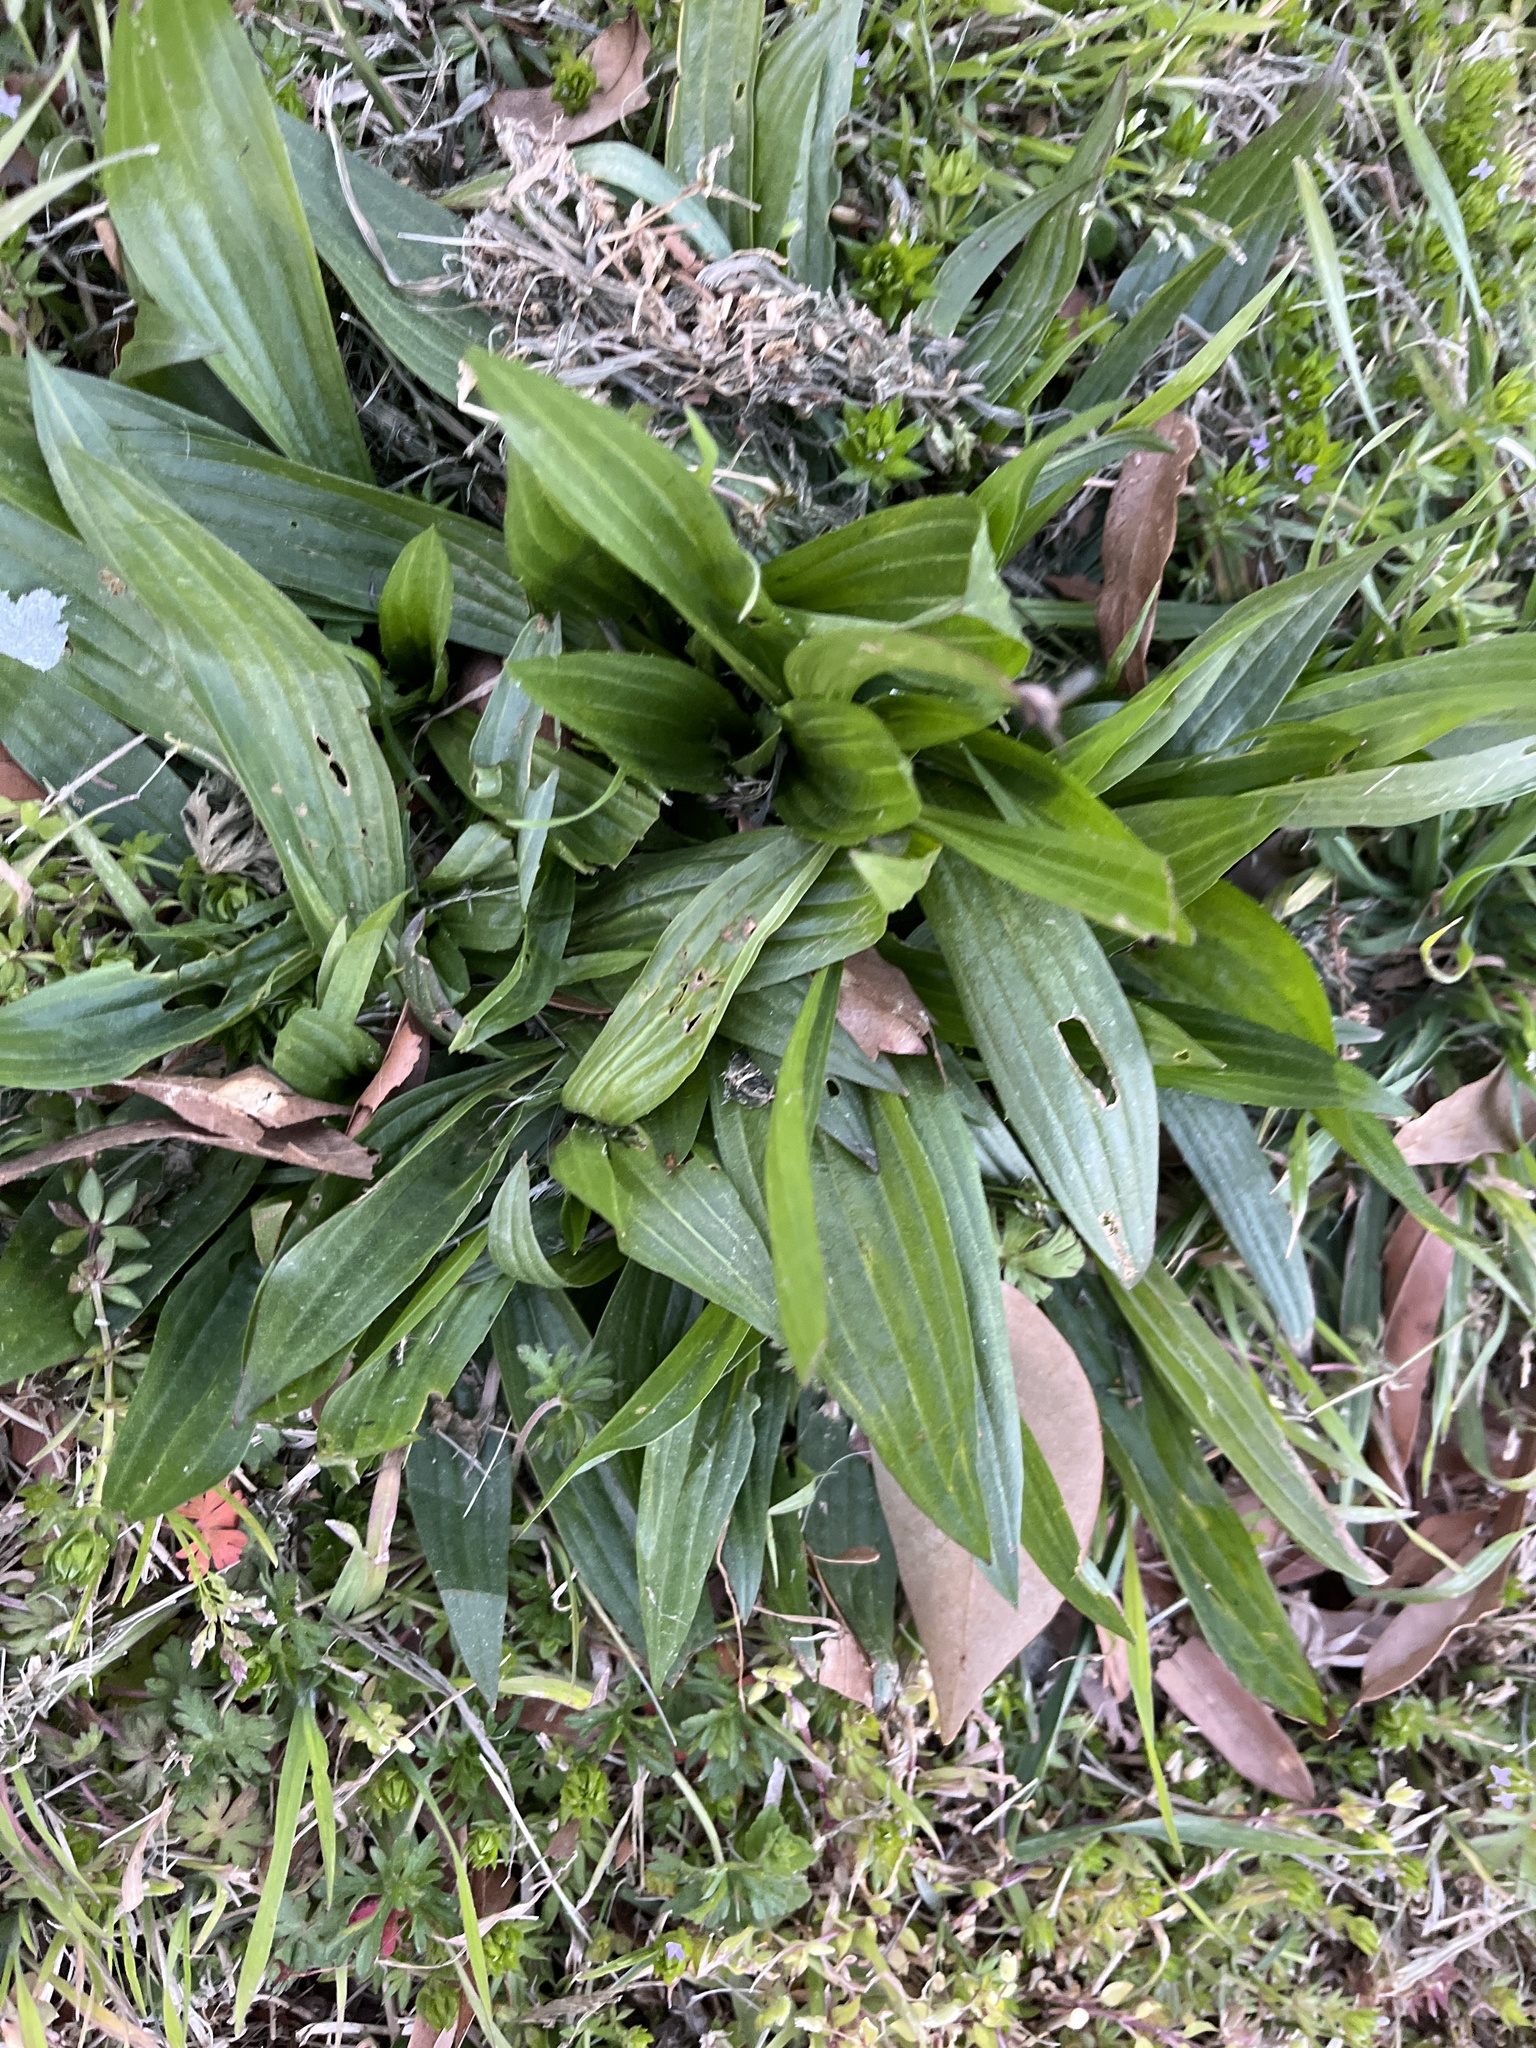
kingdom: Plantae
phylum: Tracheophyta
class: Magnoliopsida
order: Lamiales
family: Plantaginaceae
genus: Plantago
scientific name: Plantago lanceolata
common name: Ribwort plantain
